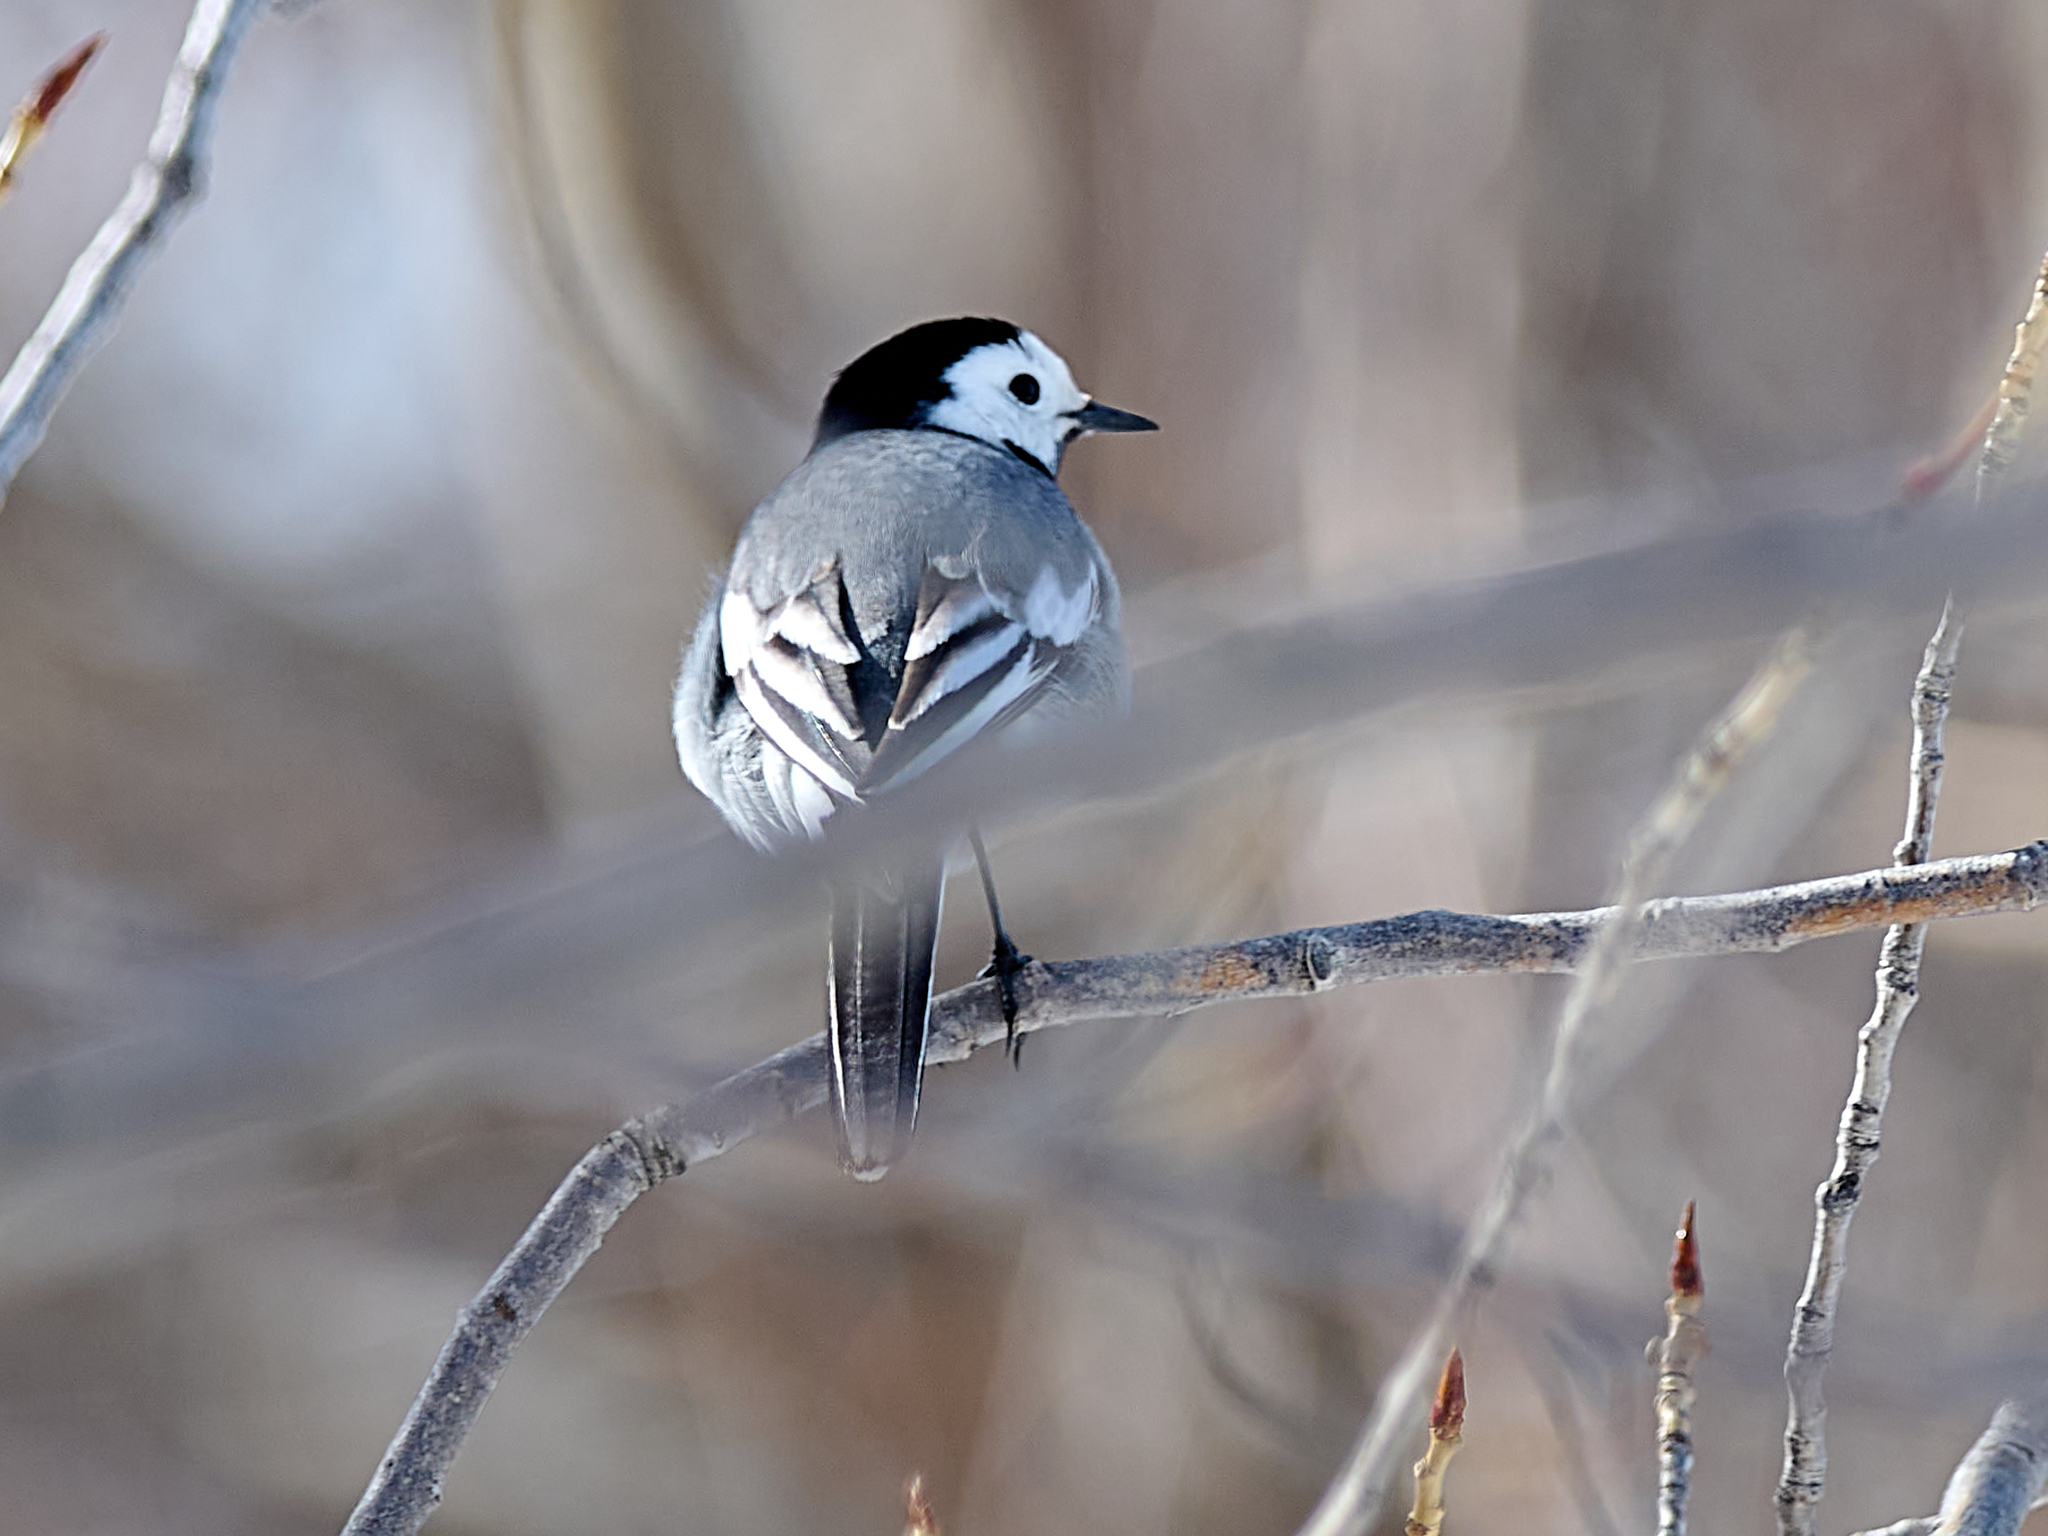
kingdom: Animalia
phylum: Chordata
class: Aves
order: Passeriformes
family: Motacillidae
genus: Motacilla
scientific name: Motacilla alba
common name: White wagtail
